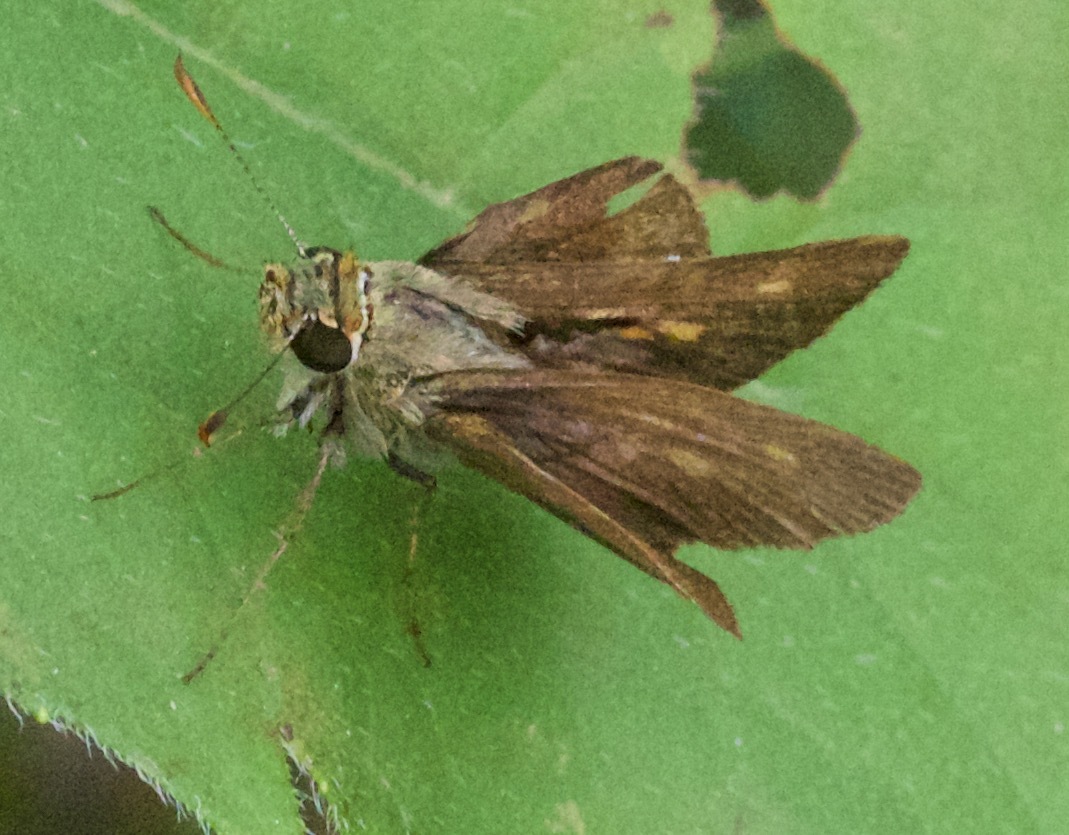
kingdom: Animalia
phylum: Arthropoda
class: Insecta
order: Lepidoptera
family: Hesperiidae
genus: Polites
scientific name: Polites egeremet
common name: Northern broken-dash
